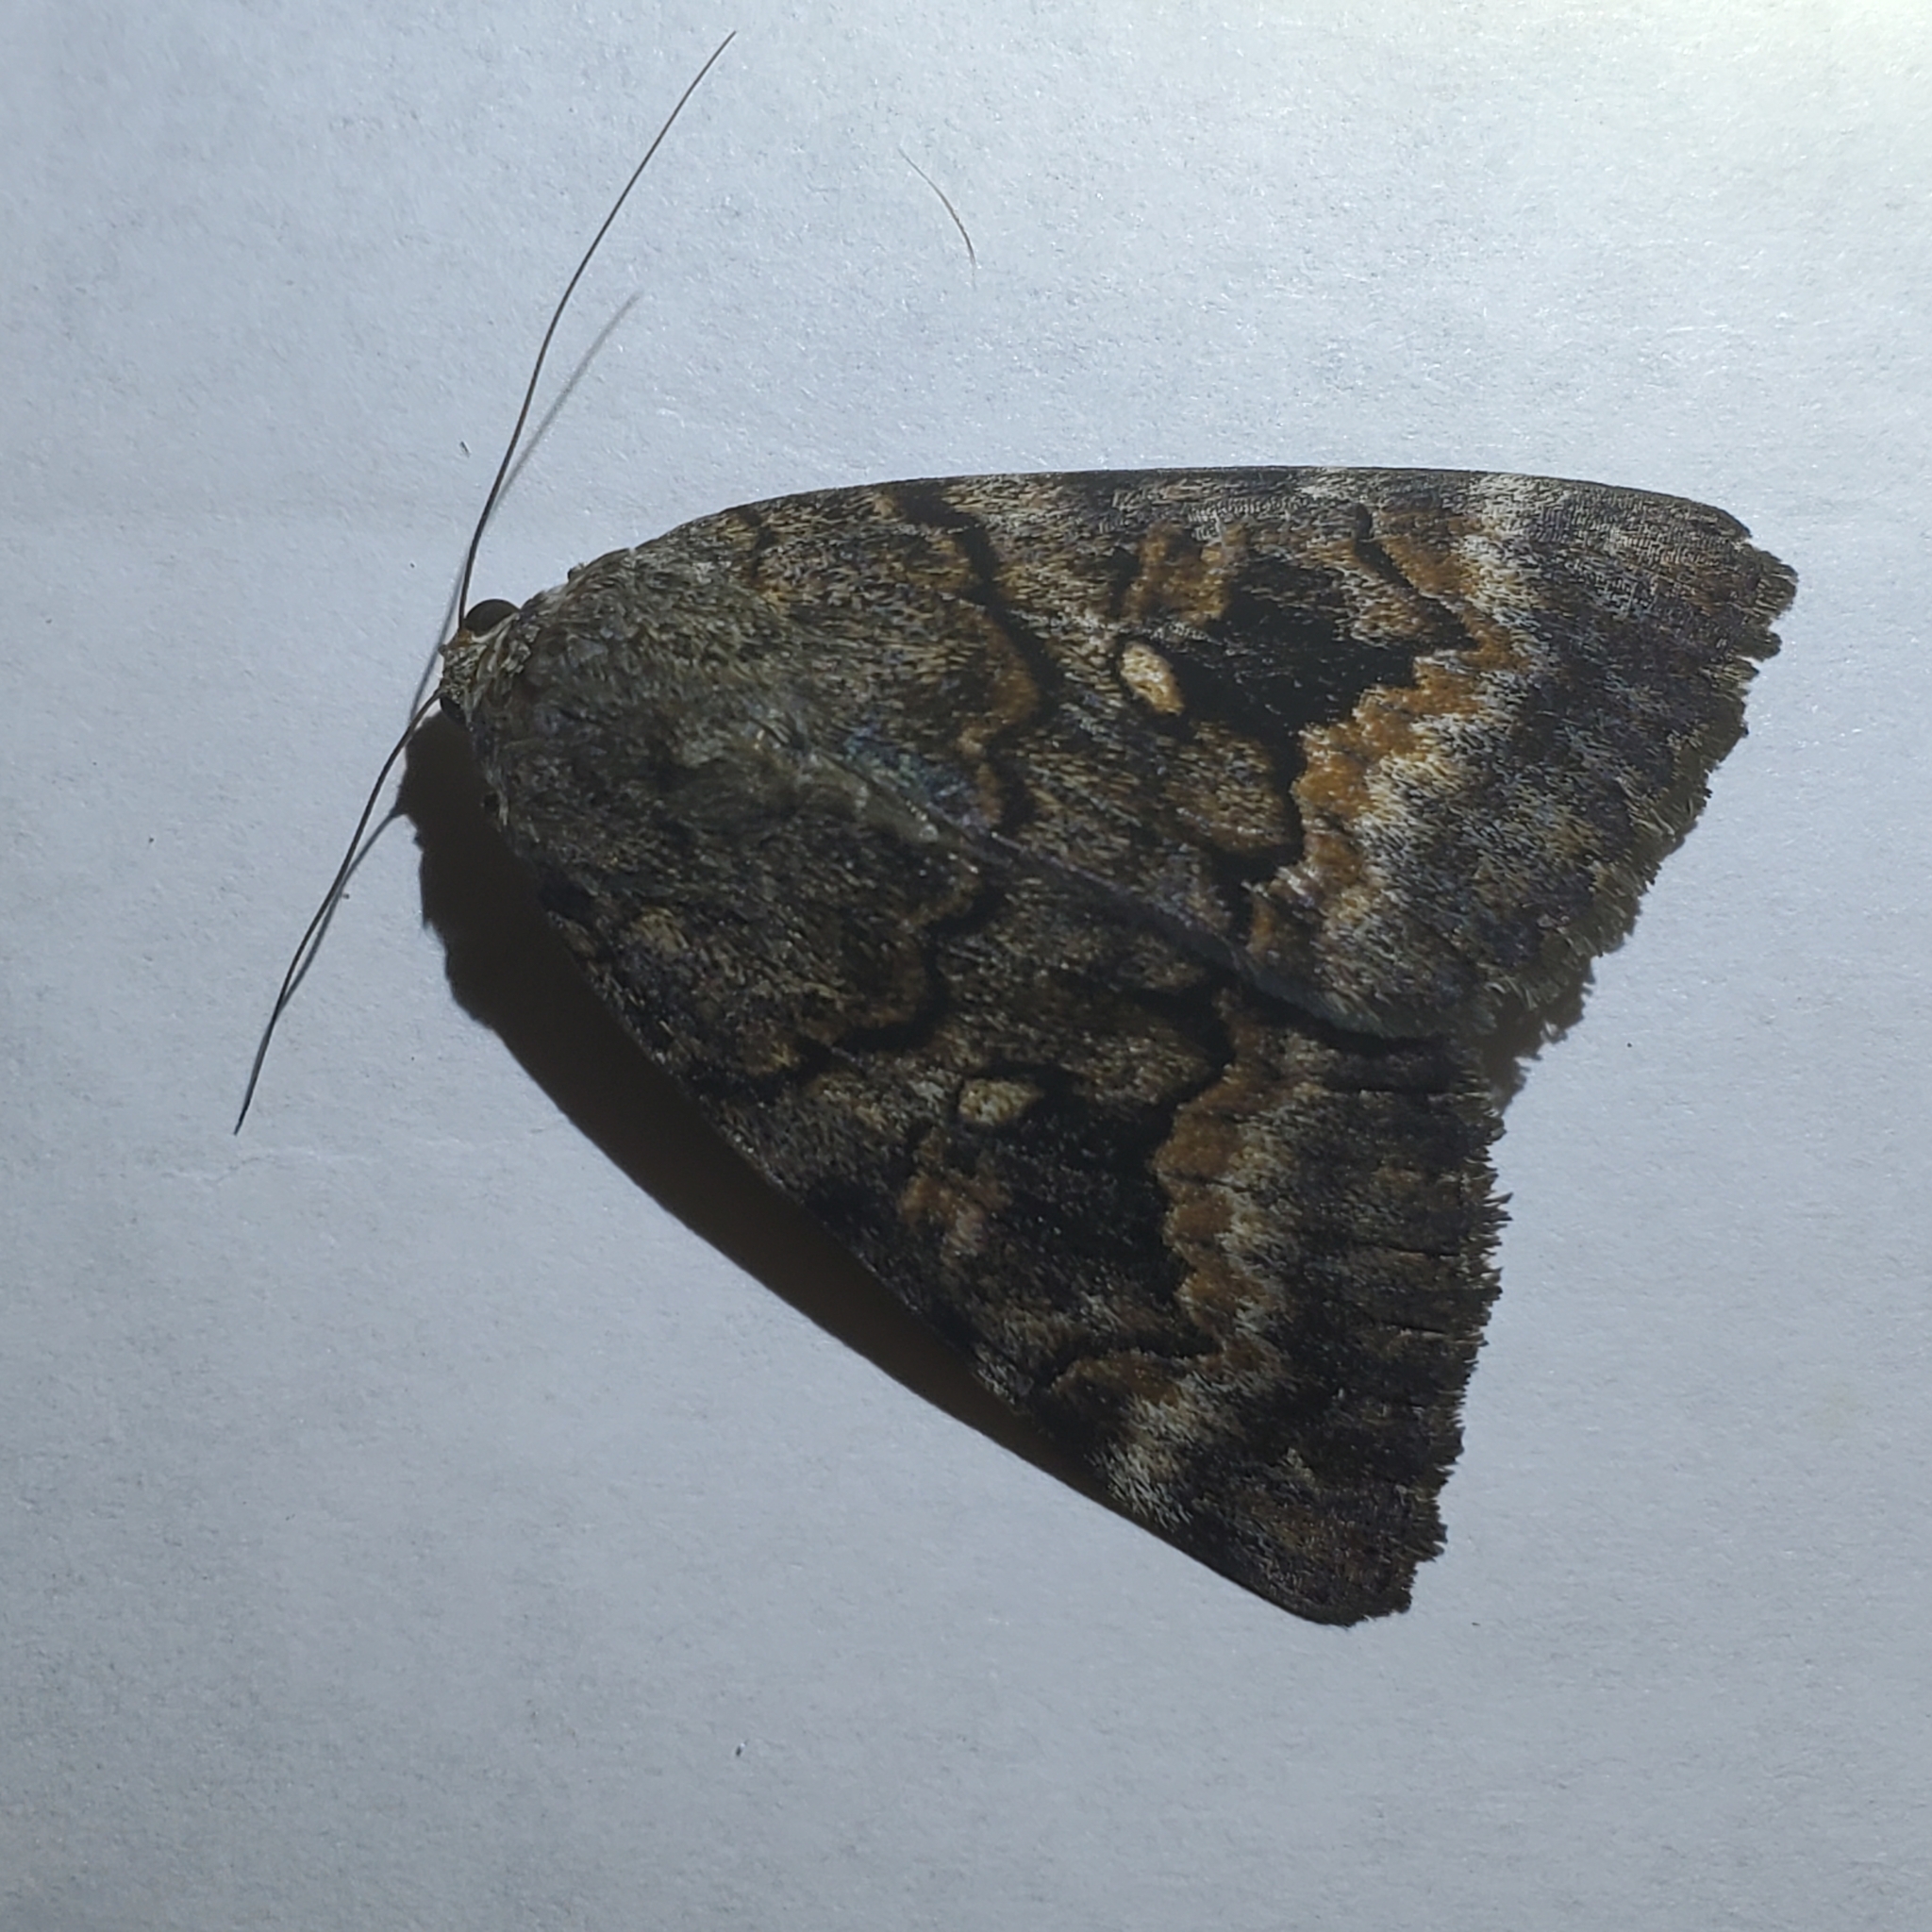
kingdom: Animalia
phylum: Arthropoda
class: Insecta
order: Lepidoptera
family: Erebidae
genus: Catocala
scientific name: Catocala epione
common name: Epione underwing
